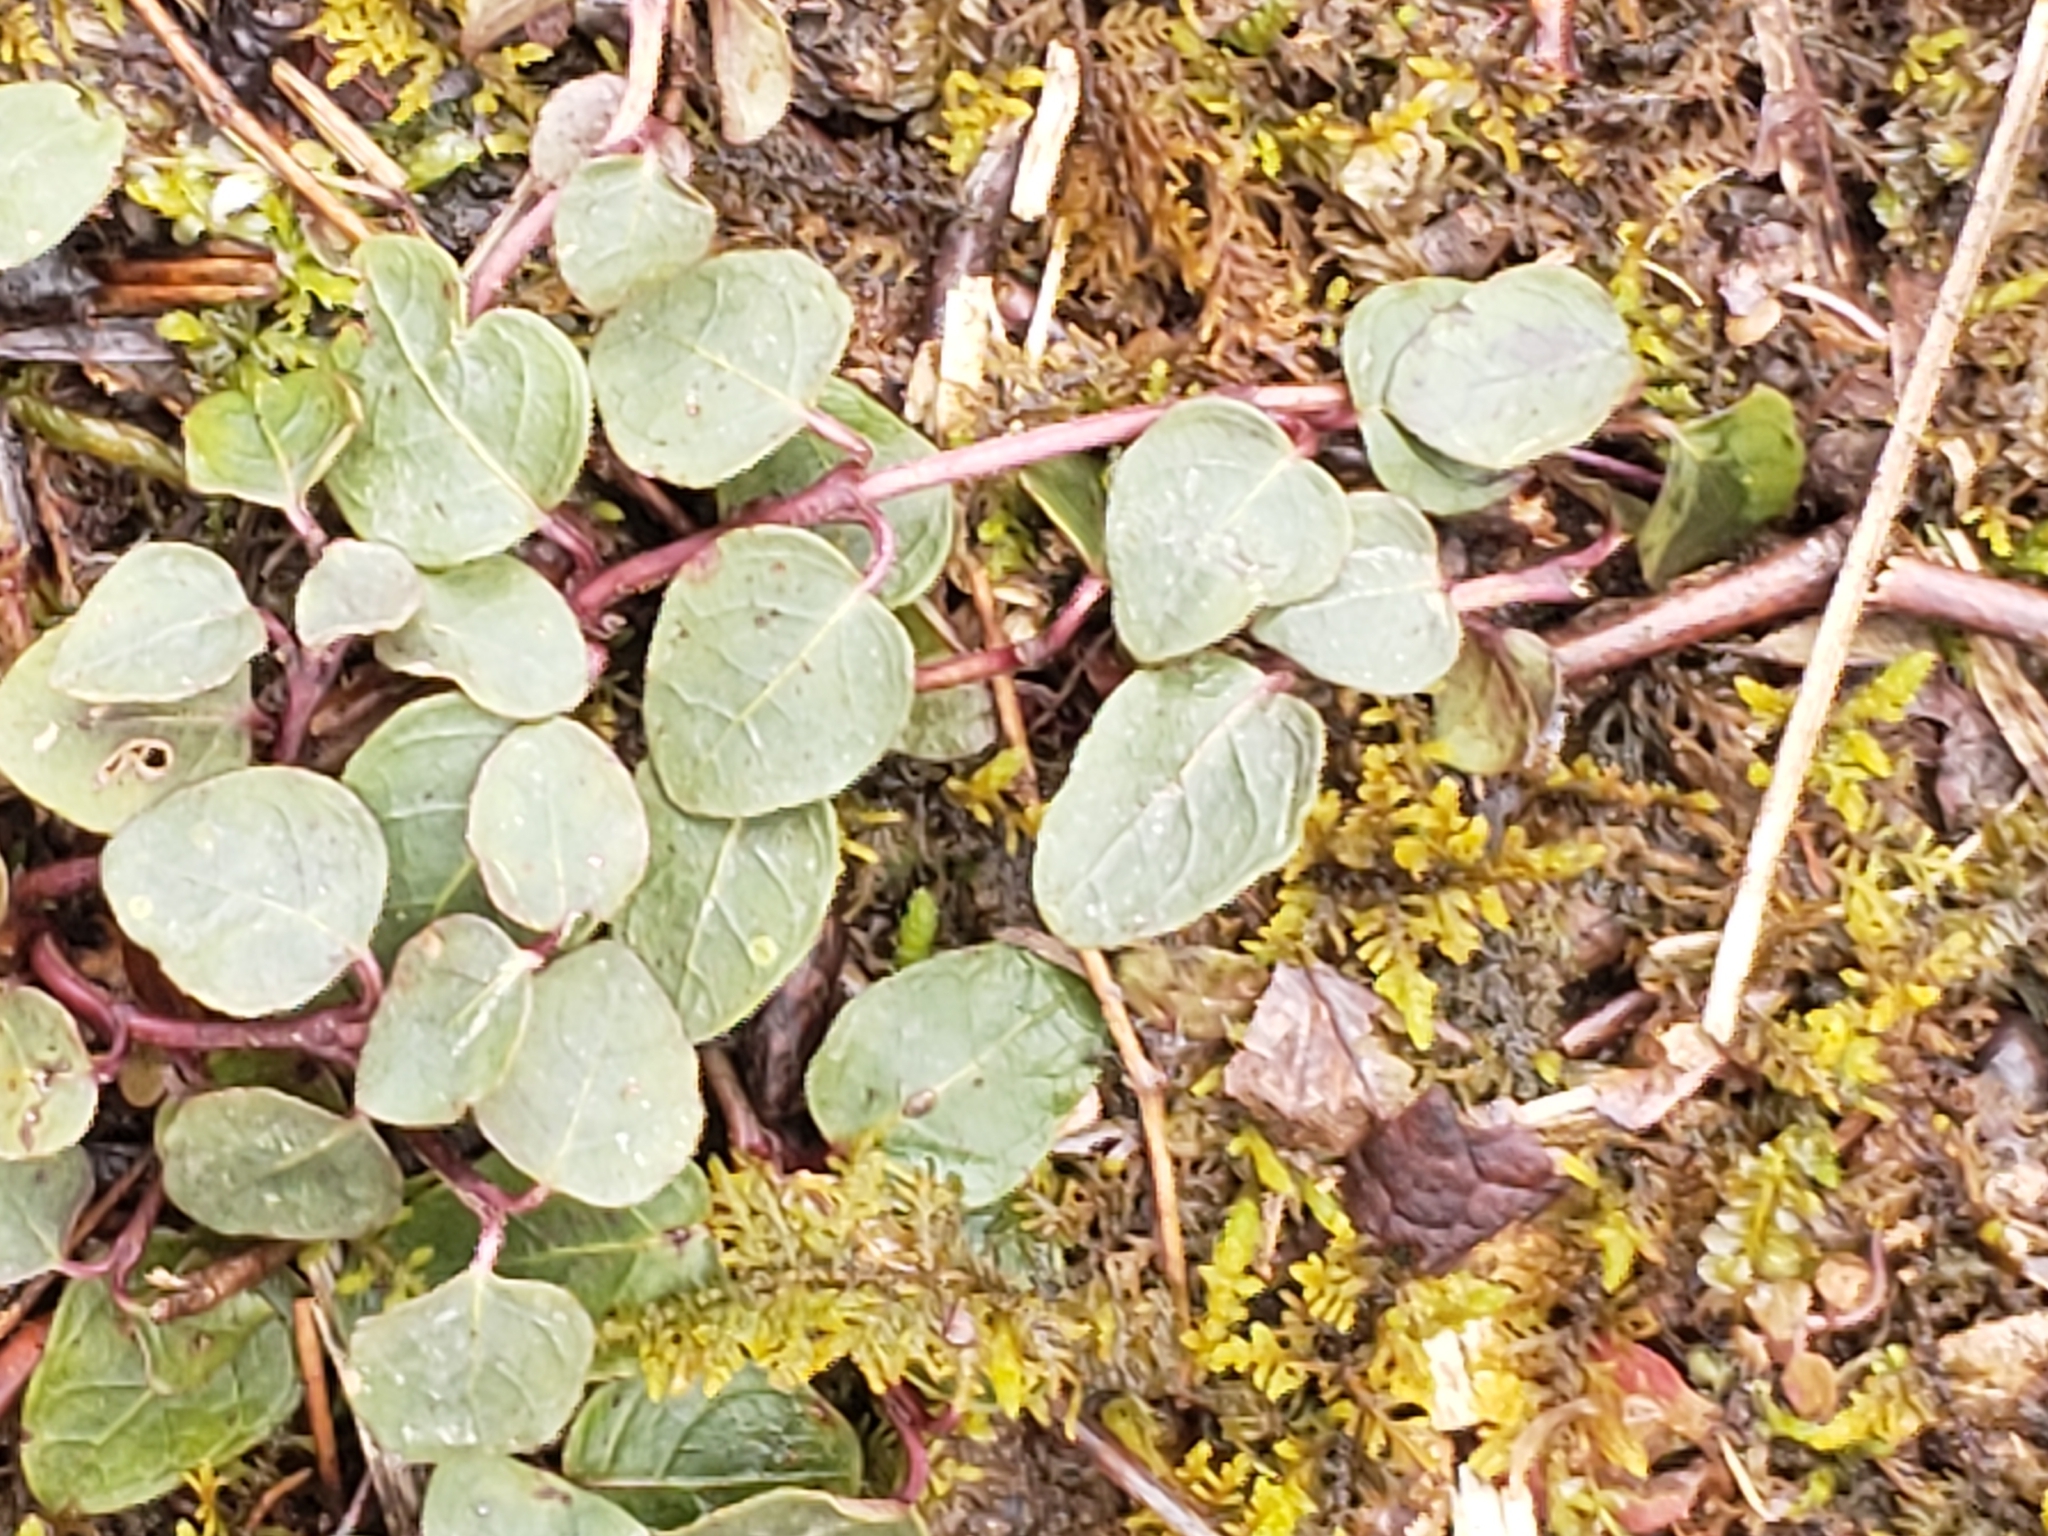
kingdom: Plantae
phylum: Tracheophyta
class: Magnoliopsida
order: Gentianales
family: Rubiaceae
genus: Mitchella
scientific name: Mitchella repens
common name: Partridge-berry
